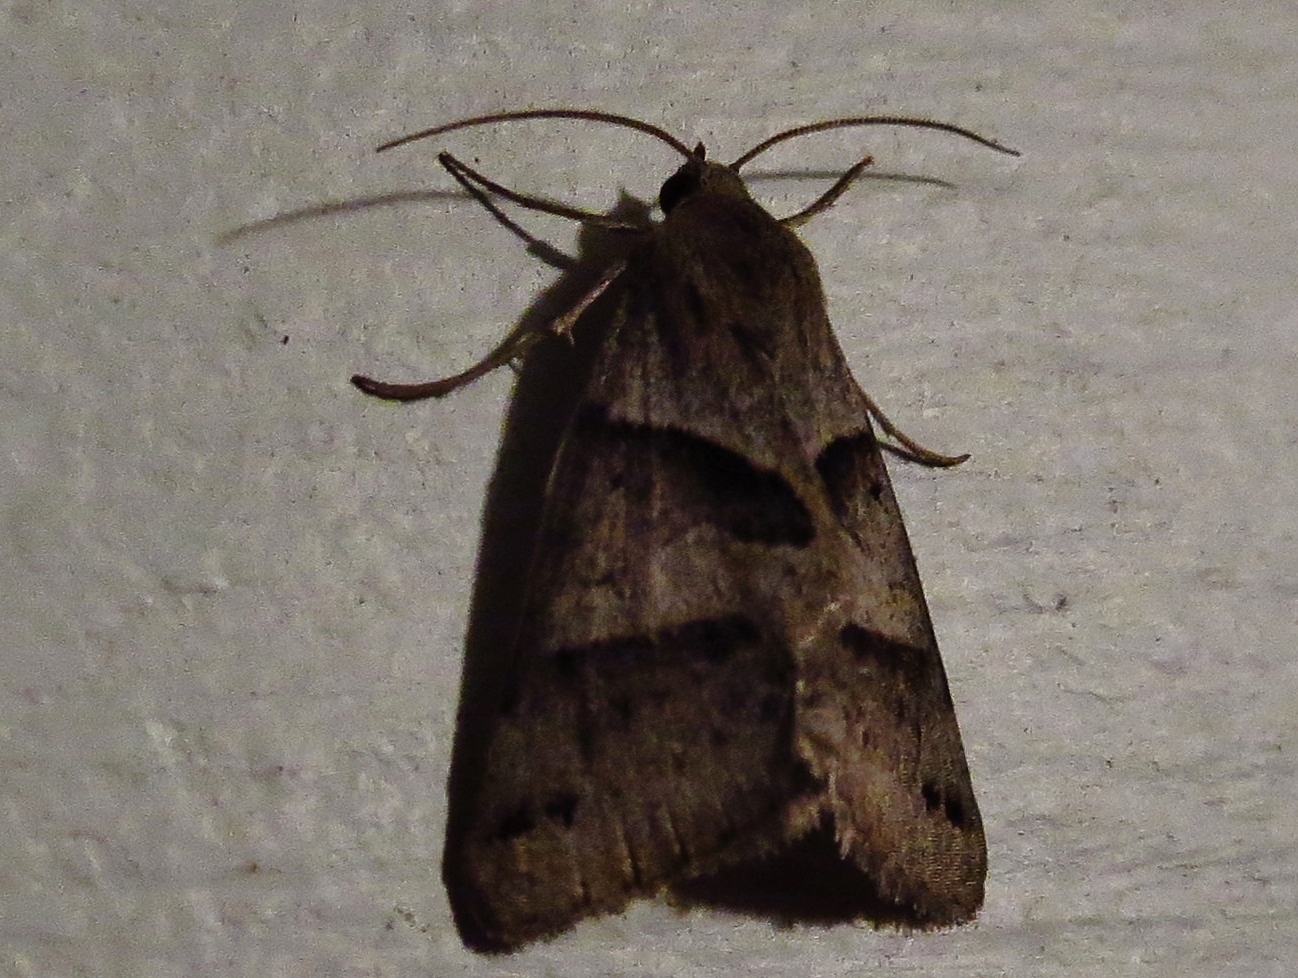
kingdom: Animalia
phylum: Arthropoda
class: Insecta
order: Lepidoptera
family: Erebidae
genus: Caenurgina
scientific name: Caenurgina erechtea
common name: Forage looper moth
